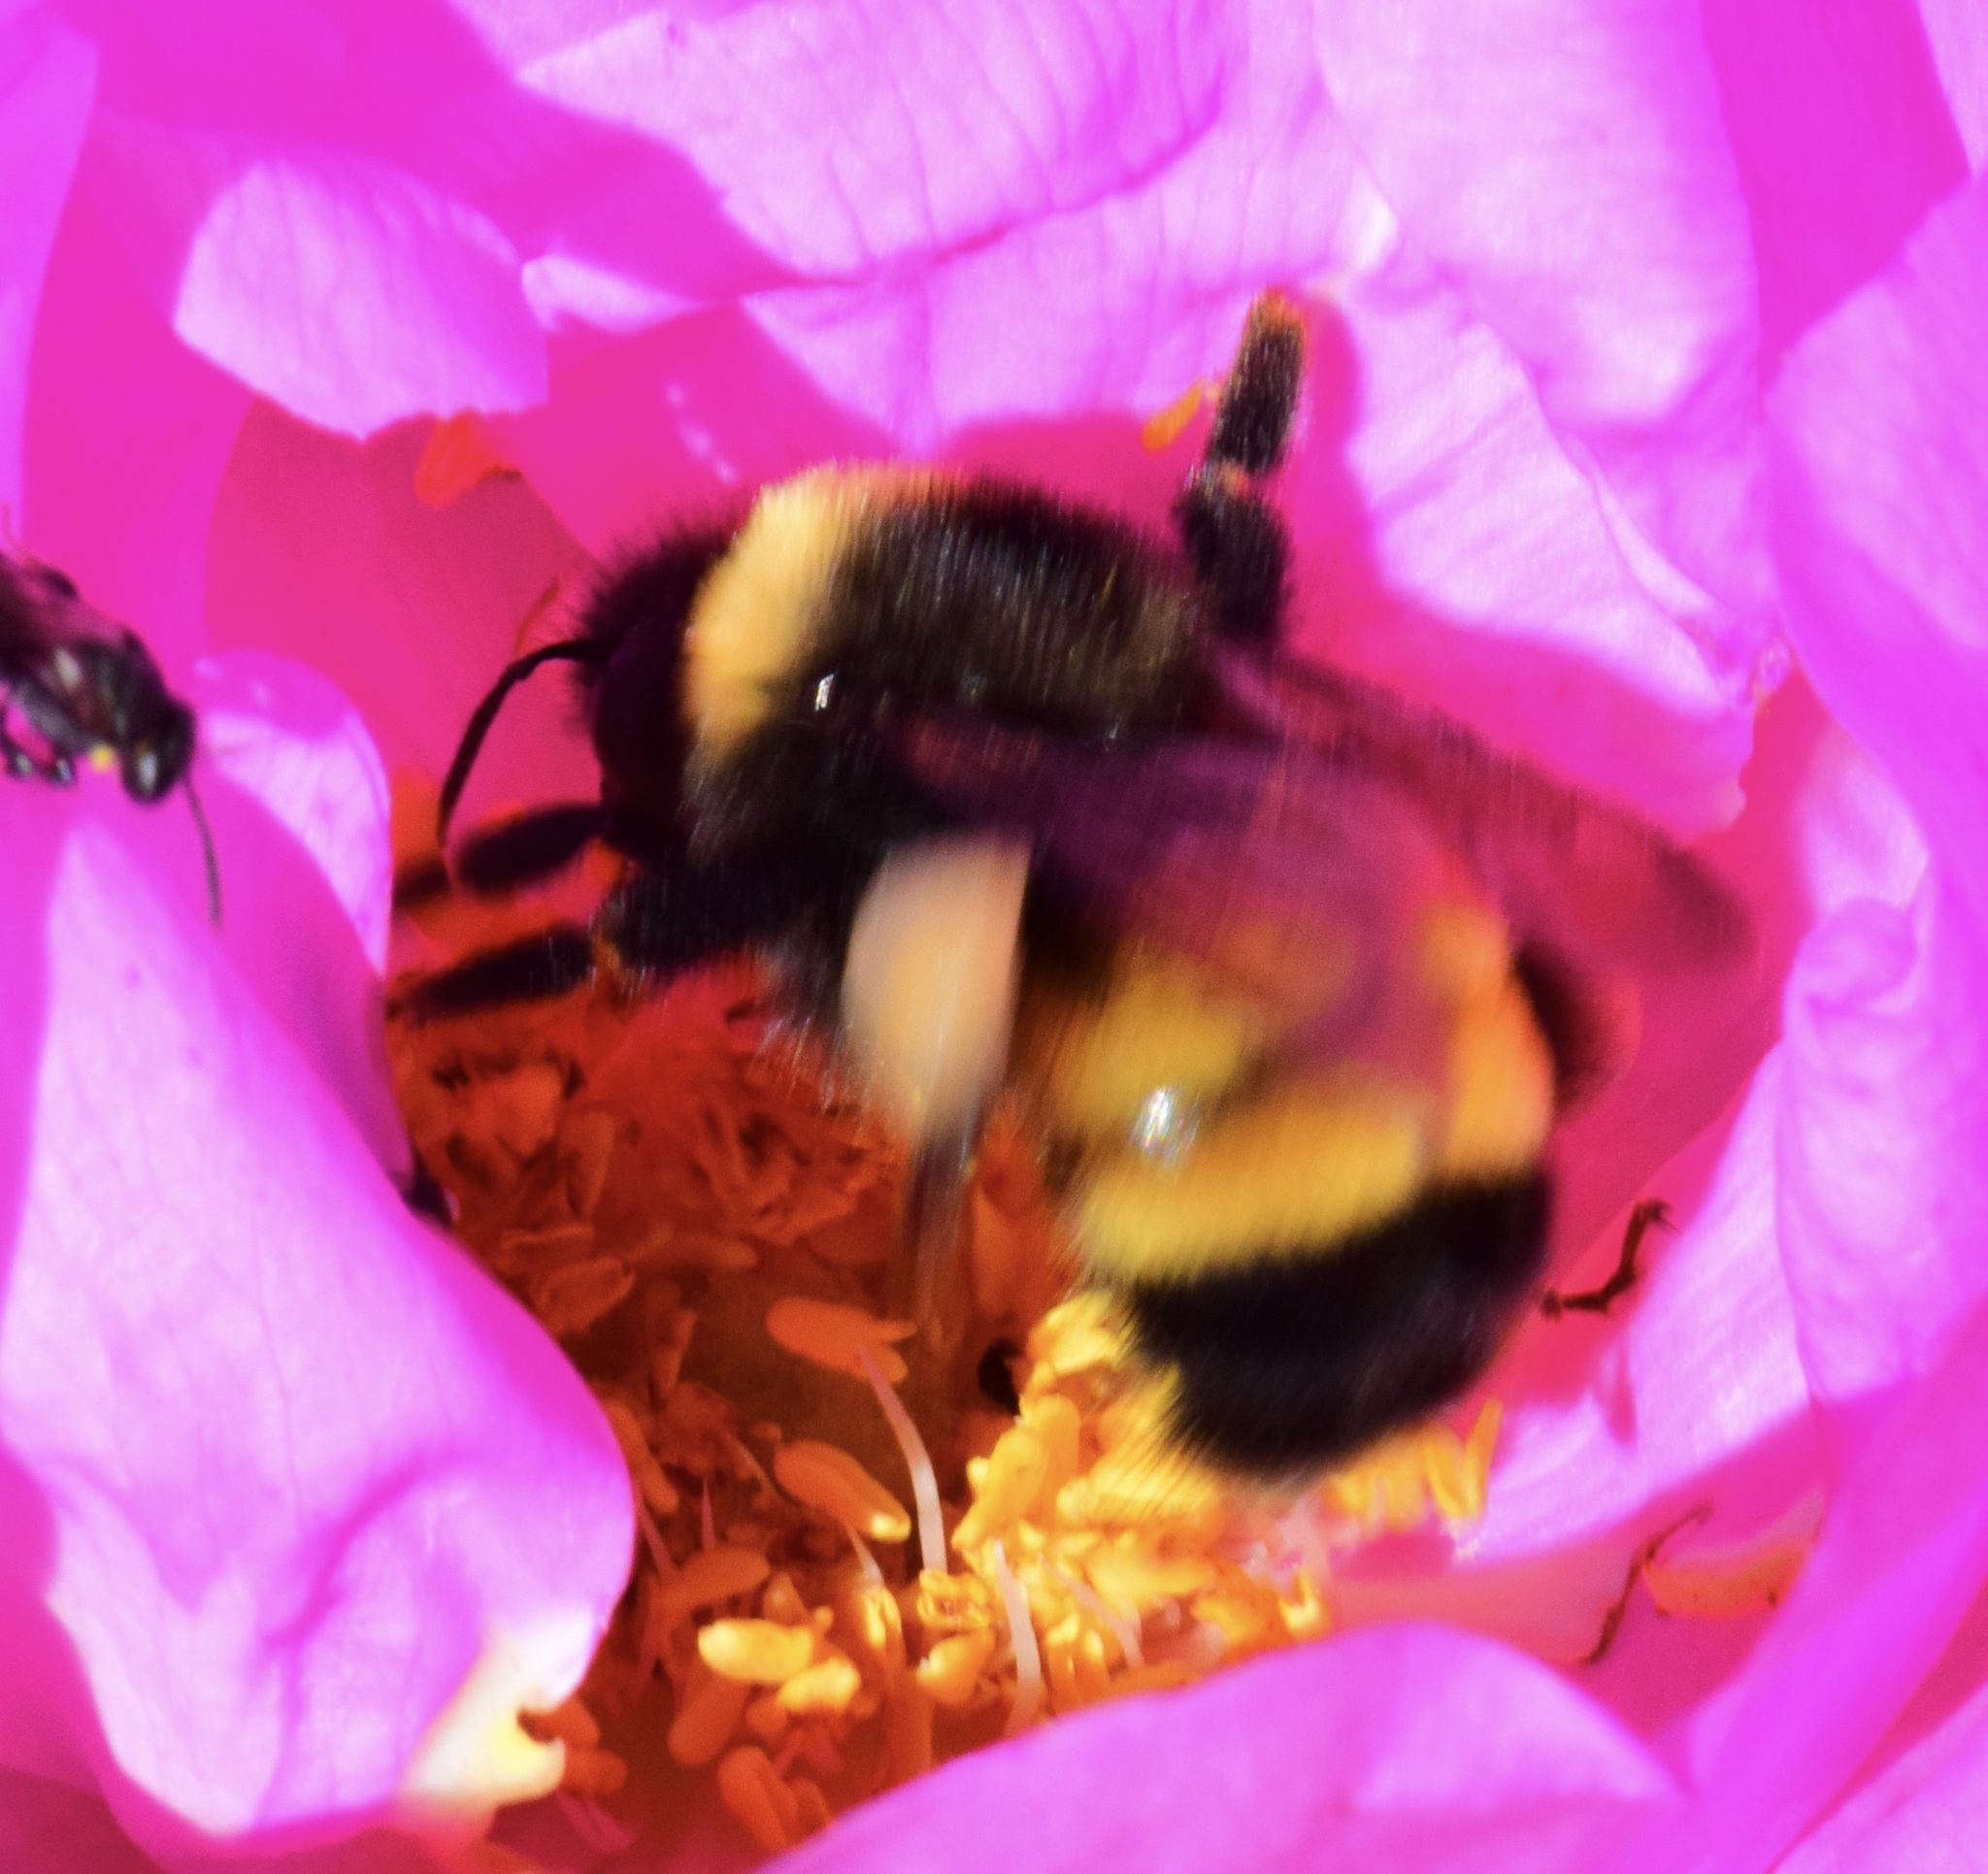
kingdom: Animalia
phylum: Arthropoda
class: Insecta
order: Hymenoptera
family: Apidae
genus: Bombus
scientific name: Bombus terricola
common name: Yellow-banded bumble bee
